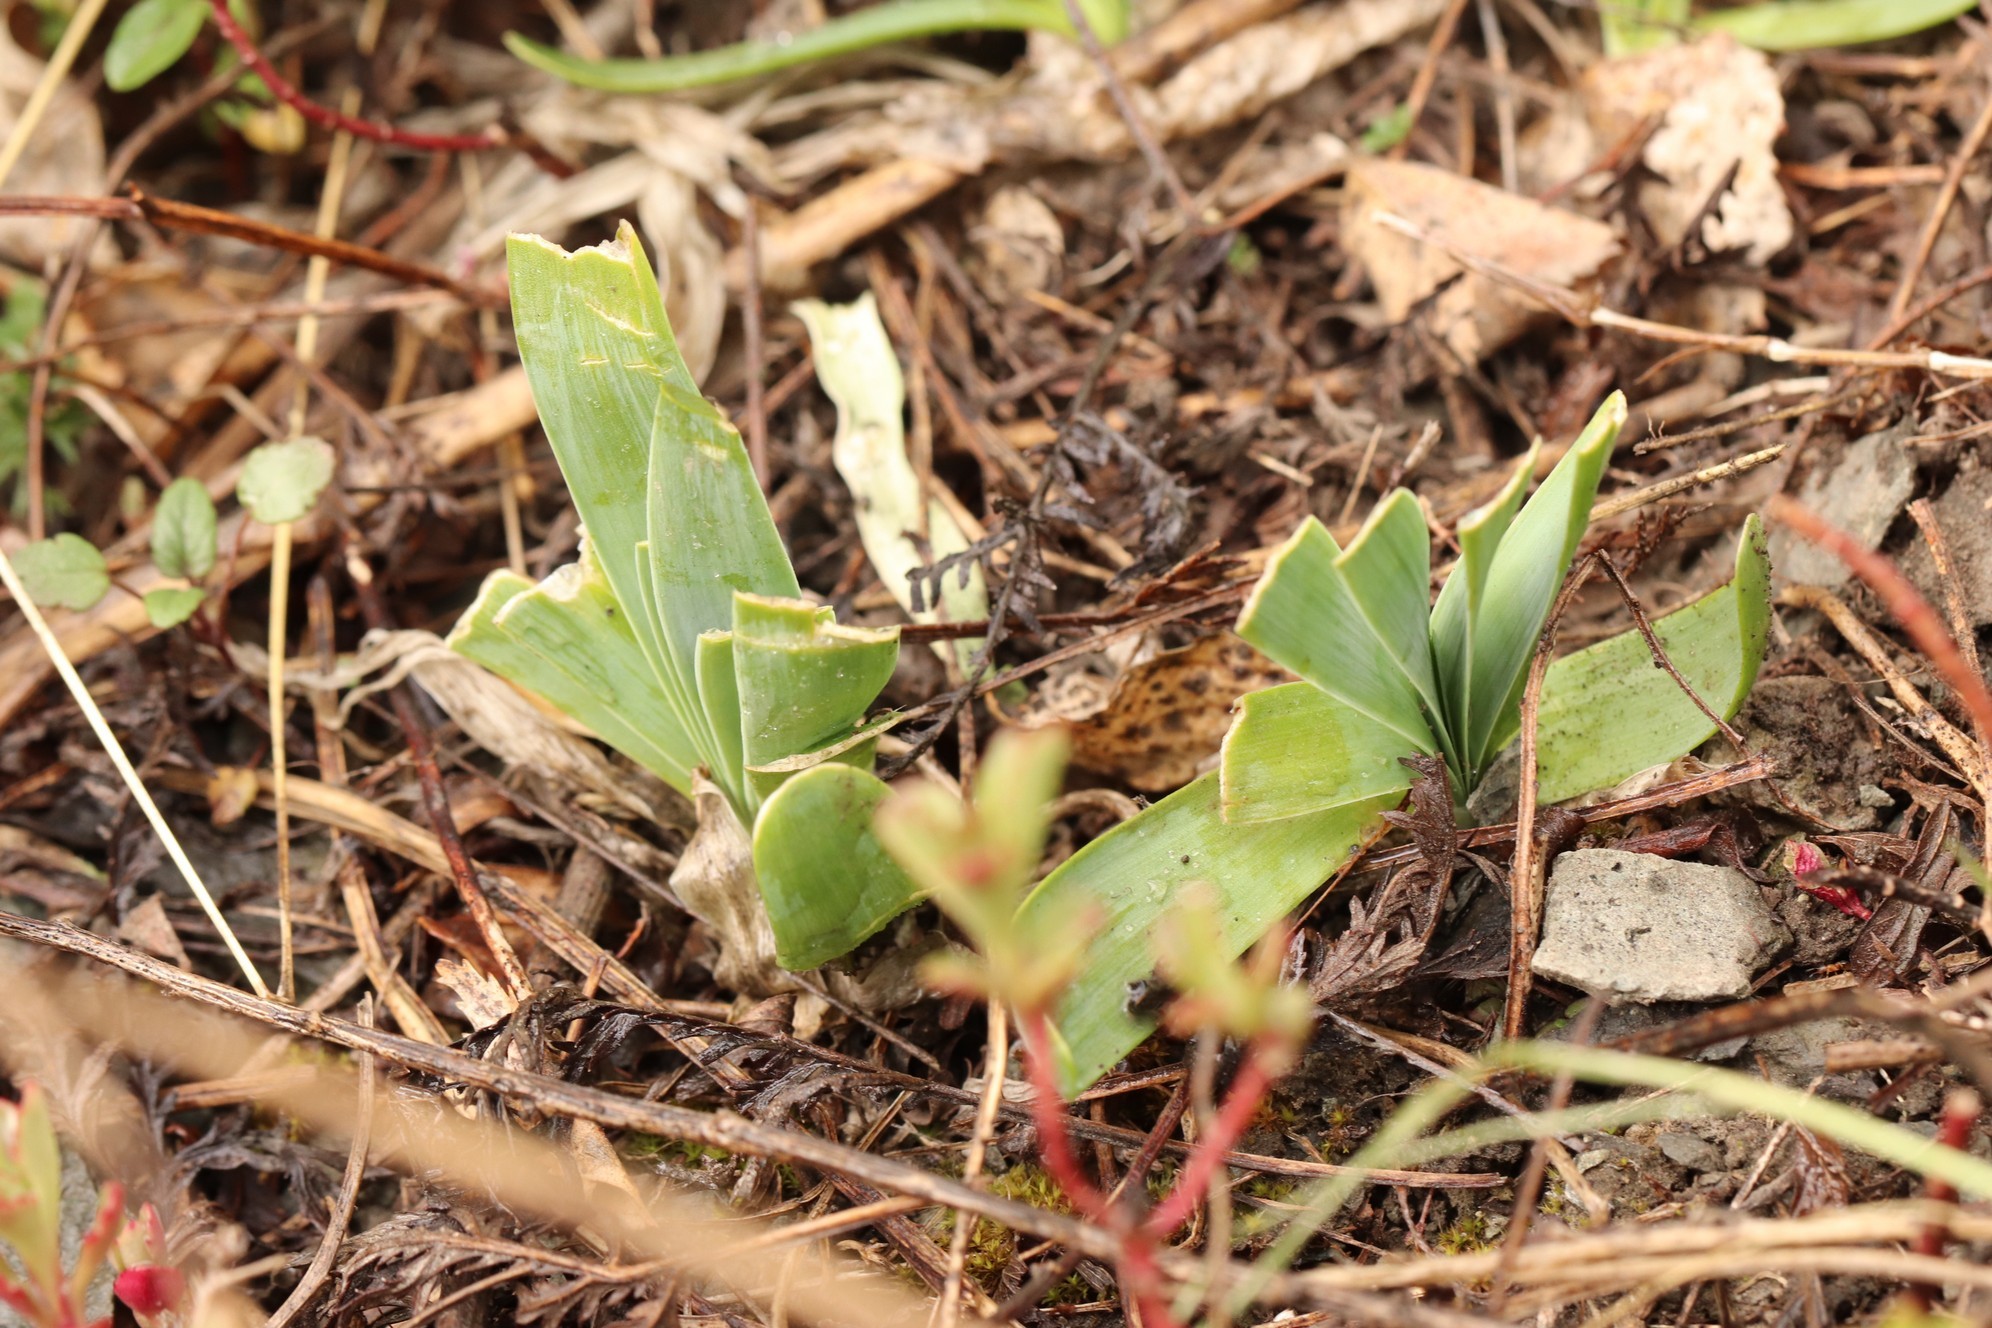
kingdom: Plantae
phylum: Tracheophyta
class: Liliopsida
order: Asparagales
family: Amaryllidaceae
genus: Allium
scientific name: Allium nutans
